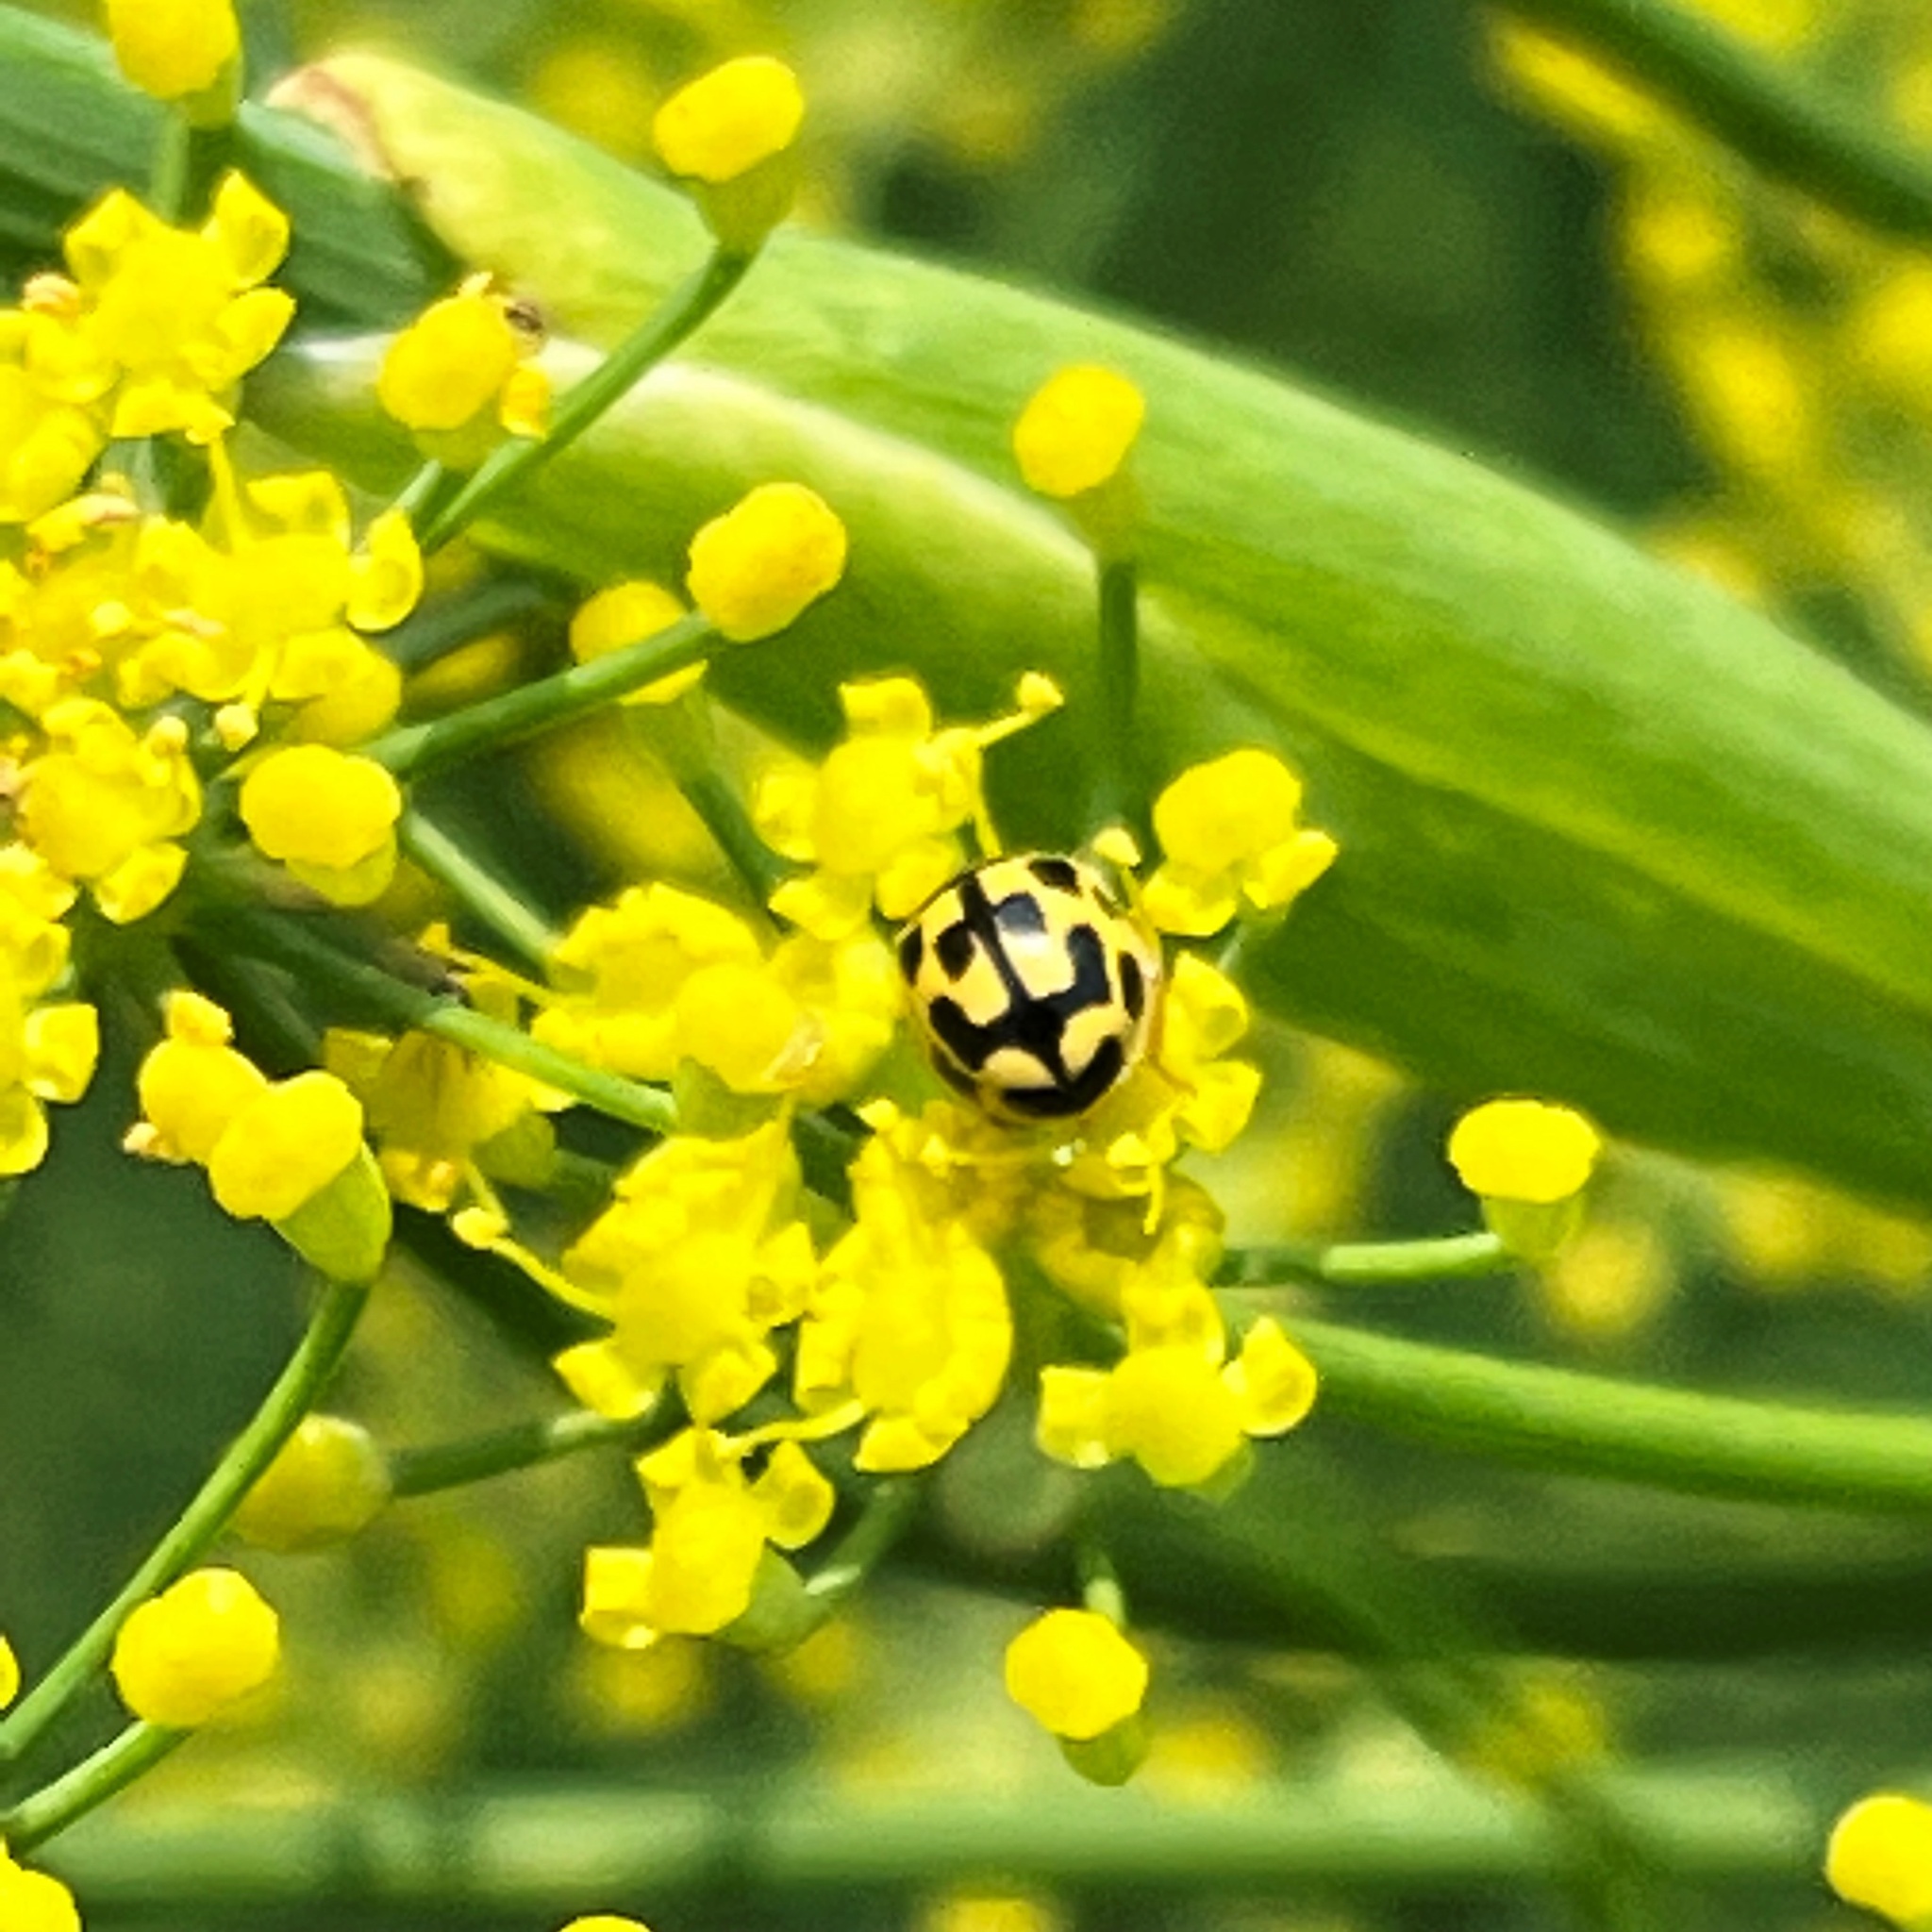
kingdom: Animalia
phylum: Arthropoda
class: Insecta
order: Coleoptera
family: Coccinellidae
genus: Propylaea
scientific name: Propylaea quatuordecimpunctata
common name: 14-spotted ladybird beetle
